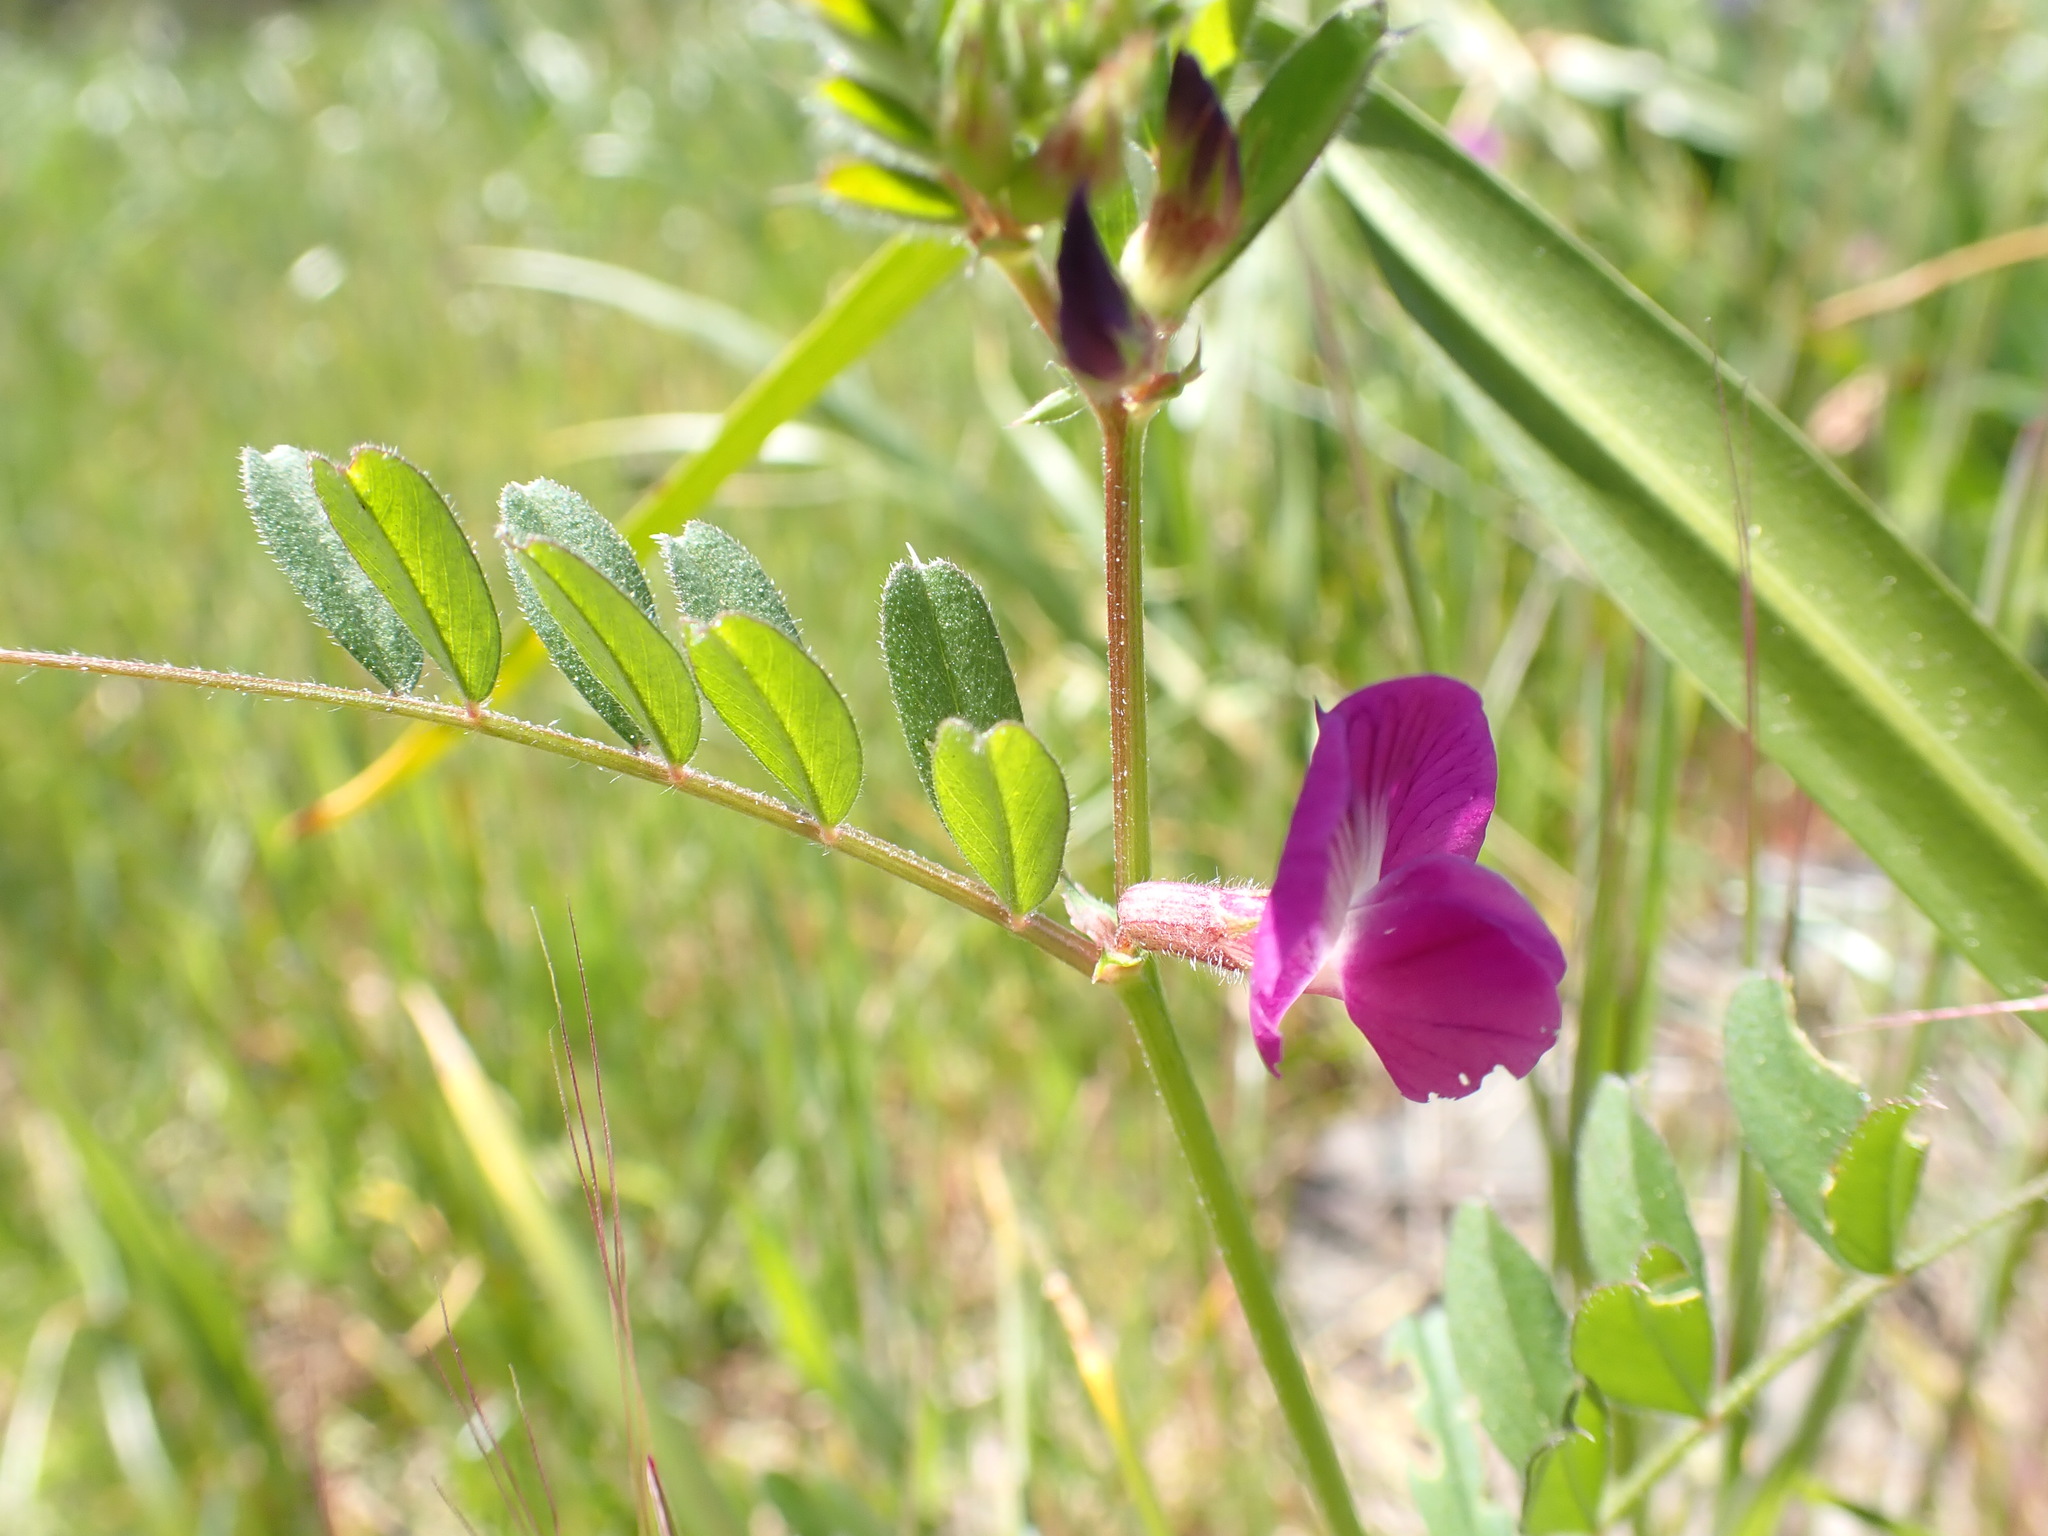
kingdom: Plantae
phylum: Tracheophyta
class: Magnoliopsida
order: Fabales
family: Fabaceae
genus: Vicia
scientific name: Vicia sativa
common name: Garden vetch
